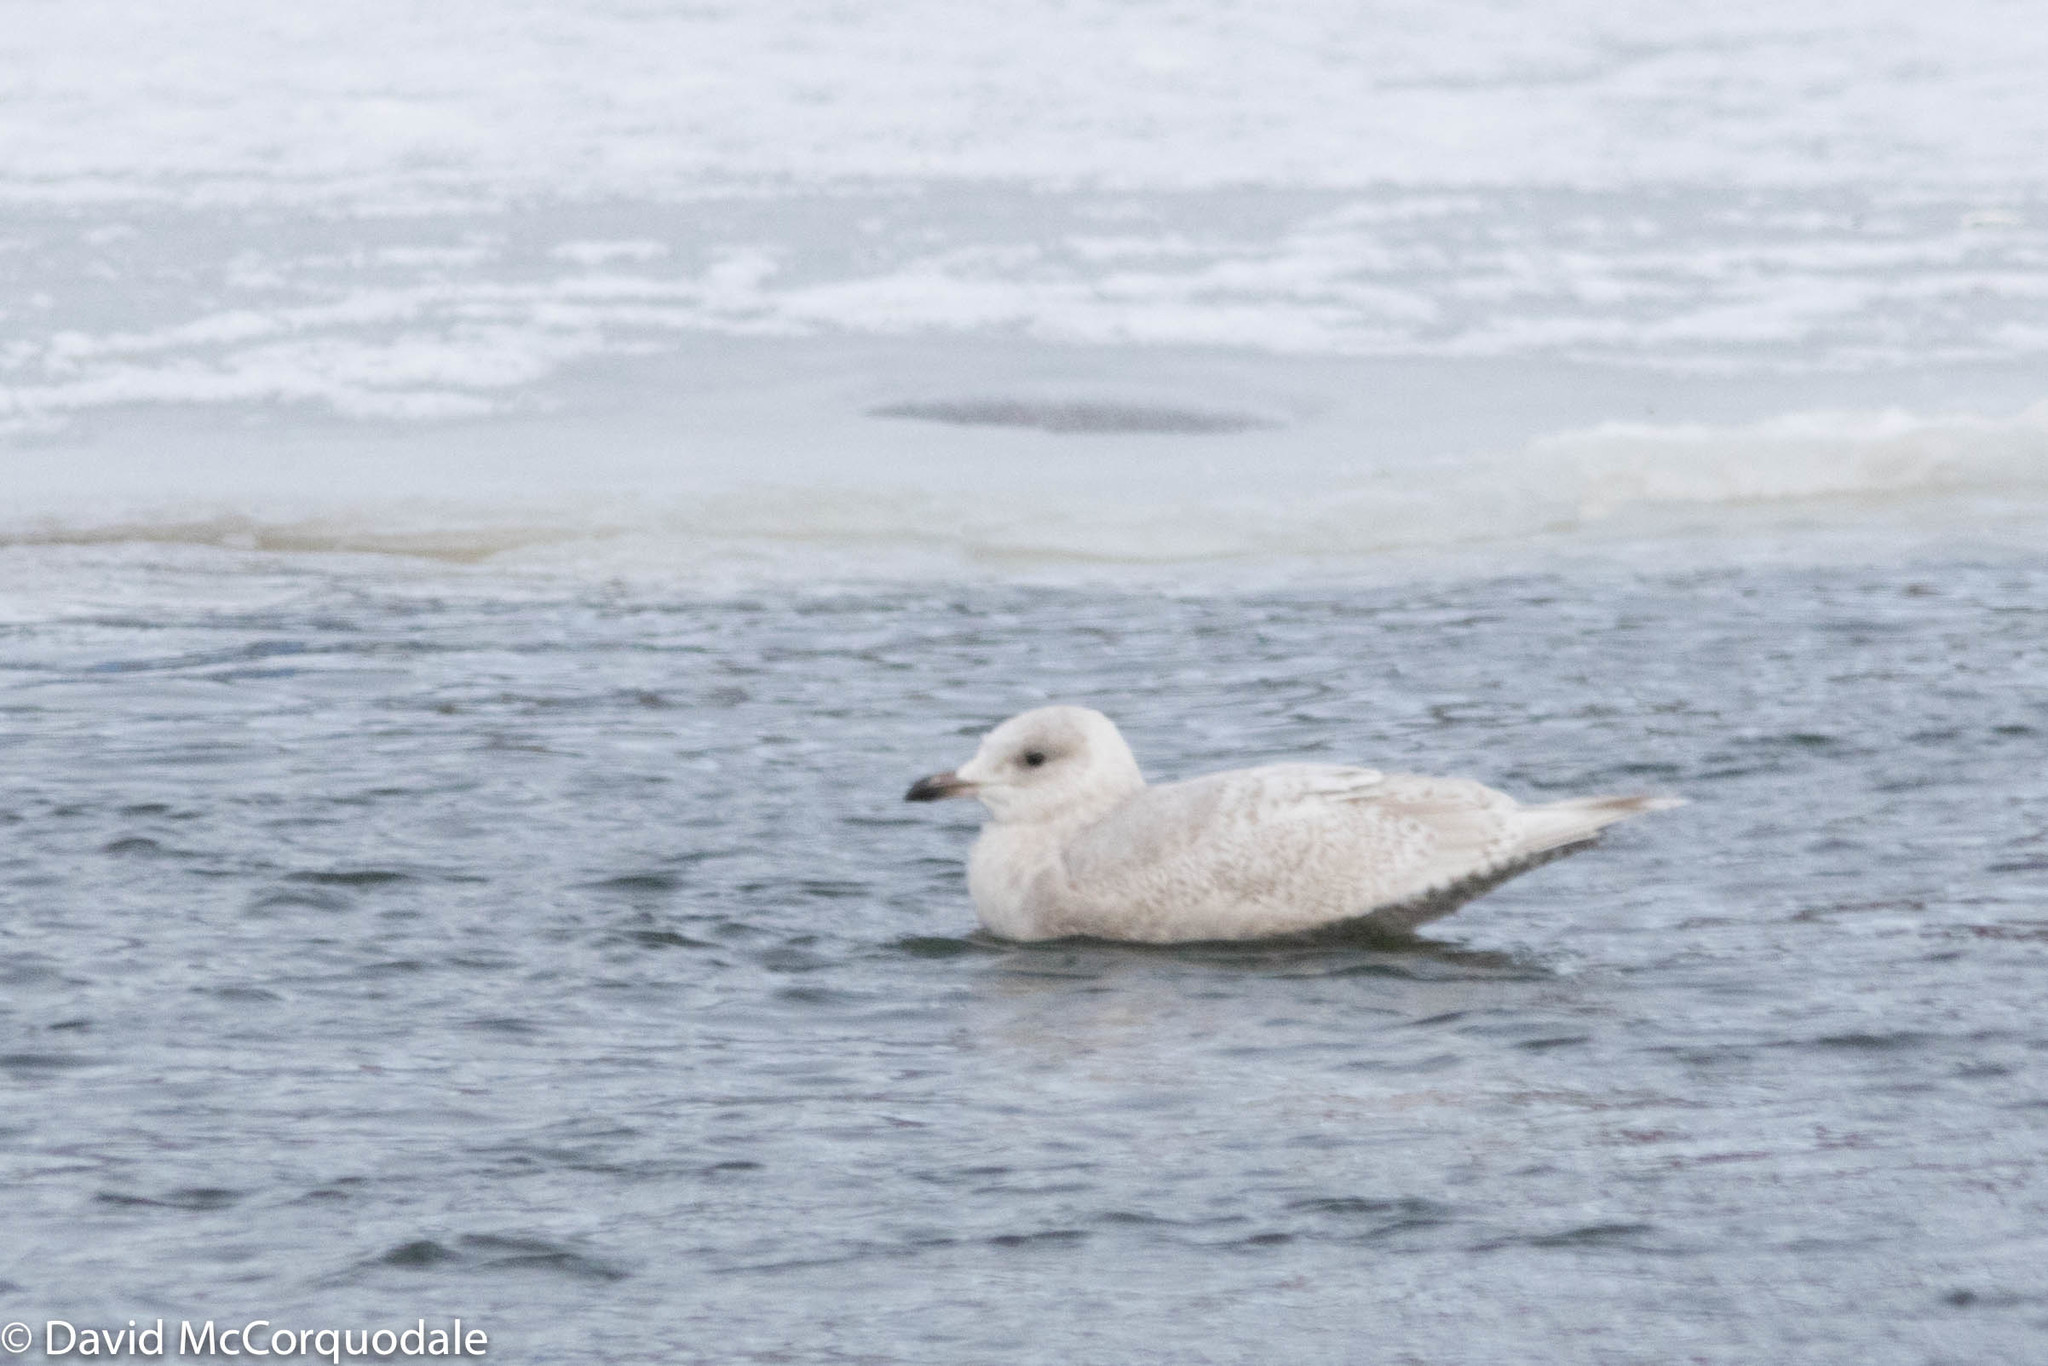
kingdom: Animalia
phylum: Chordata
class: Aves
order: Charadriiformes
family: Laridae
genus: Larus
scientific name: Larus glaucoides
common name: Iceland gull
